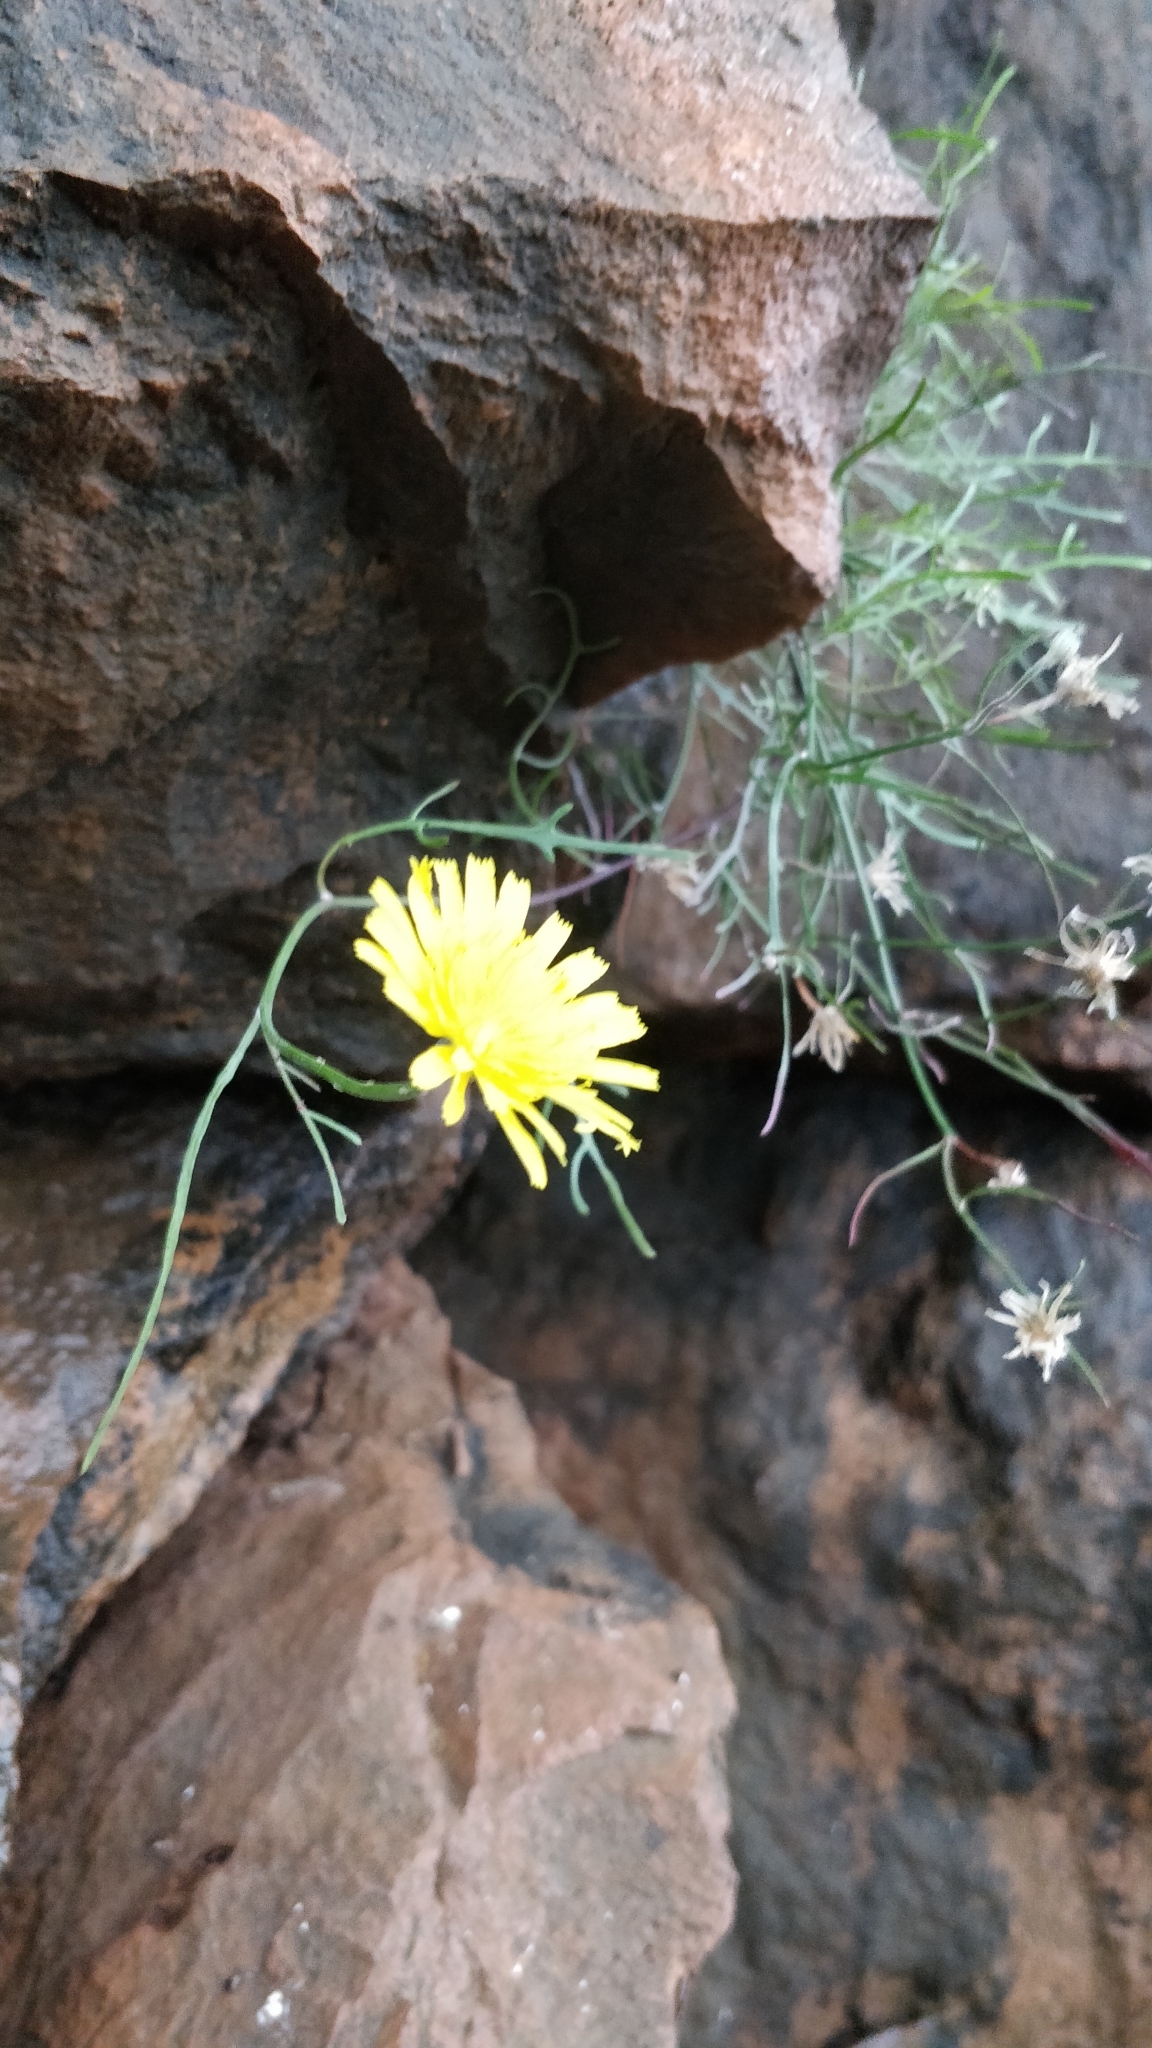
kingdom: Plantae
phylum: Tracheophyta
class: Magnoliopsida
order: Asterales
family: Asteraceae
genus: Tolpis
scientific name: Tolpis succulenta
